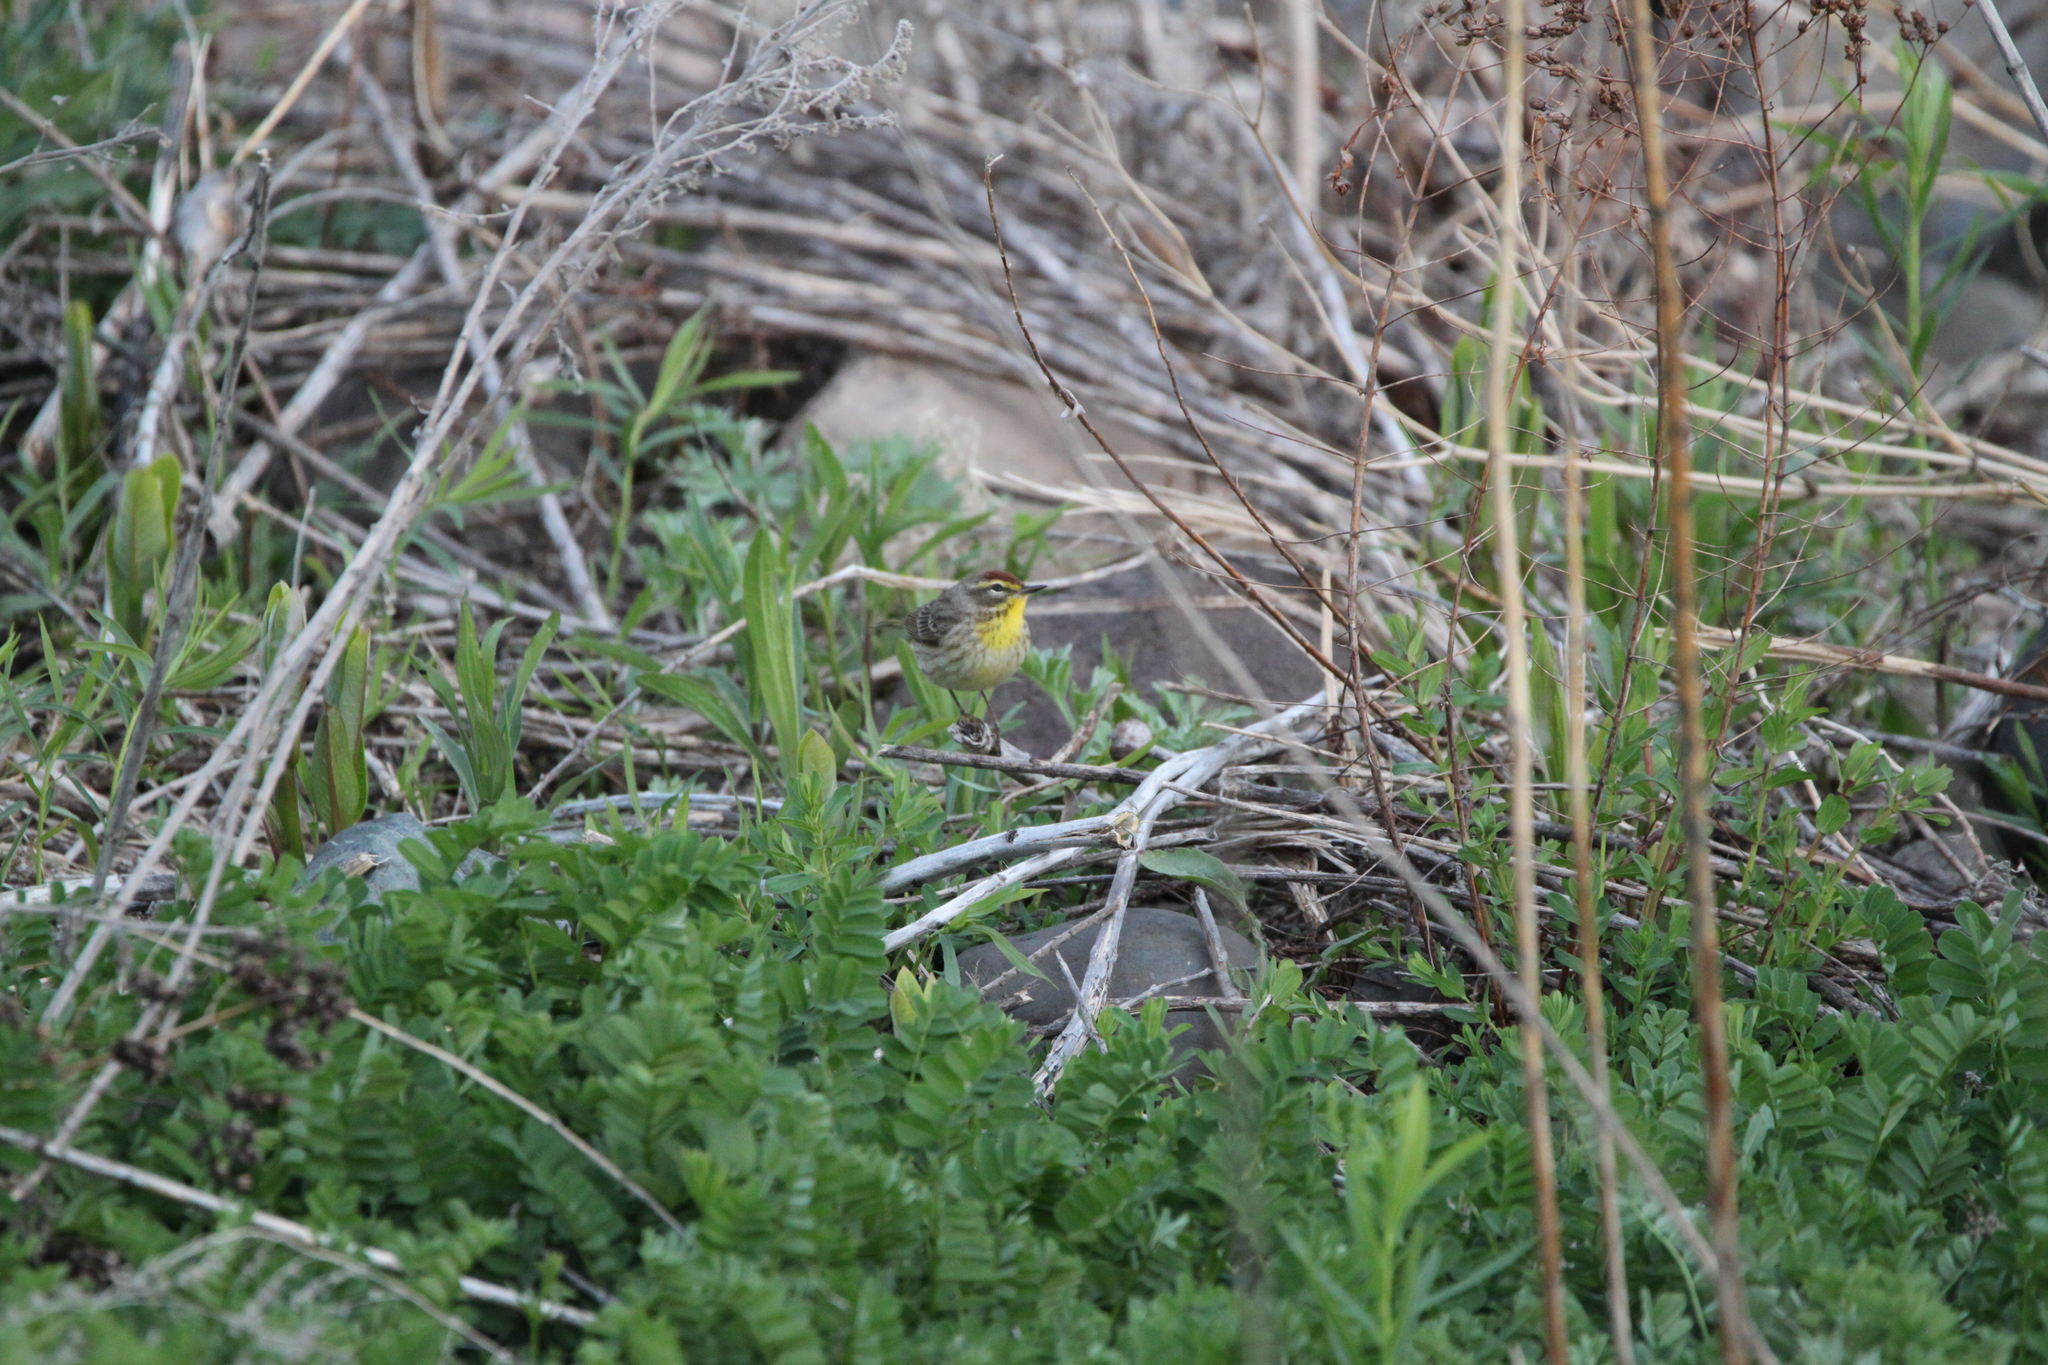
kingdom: Animalia
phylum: Chordata
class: Aves
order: Passeriformes
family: Parulidae
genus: Setophaga
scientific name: Setophaga palmarum
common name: Palm warbler
